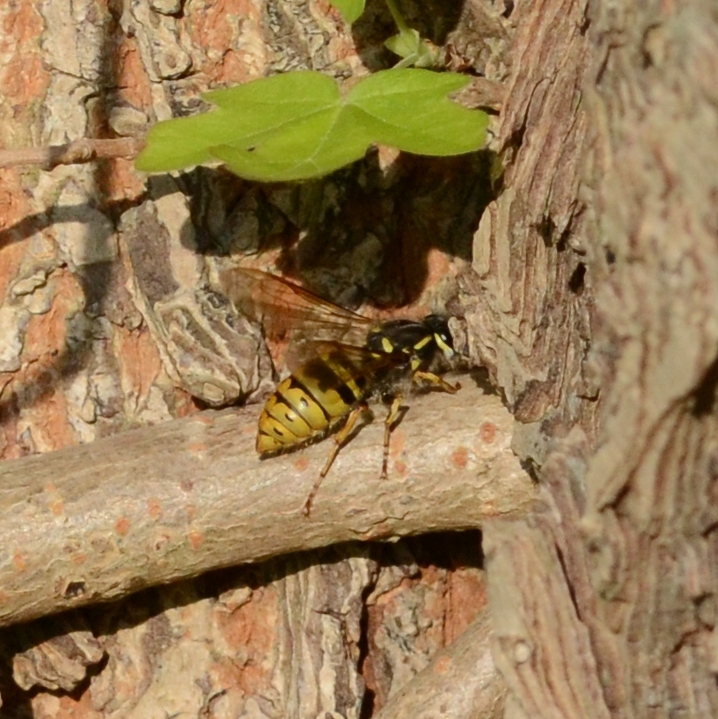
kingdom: Animalia
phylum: Arthropoda
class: Insecta
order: Hymenoptera
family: Vespidae
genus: Vespula
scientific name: Vespula vulgaris
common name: Common wasp
